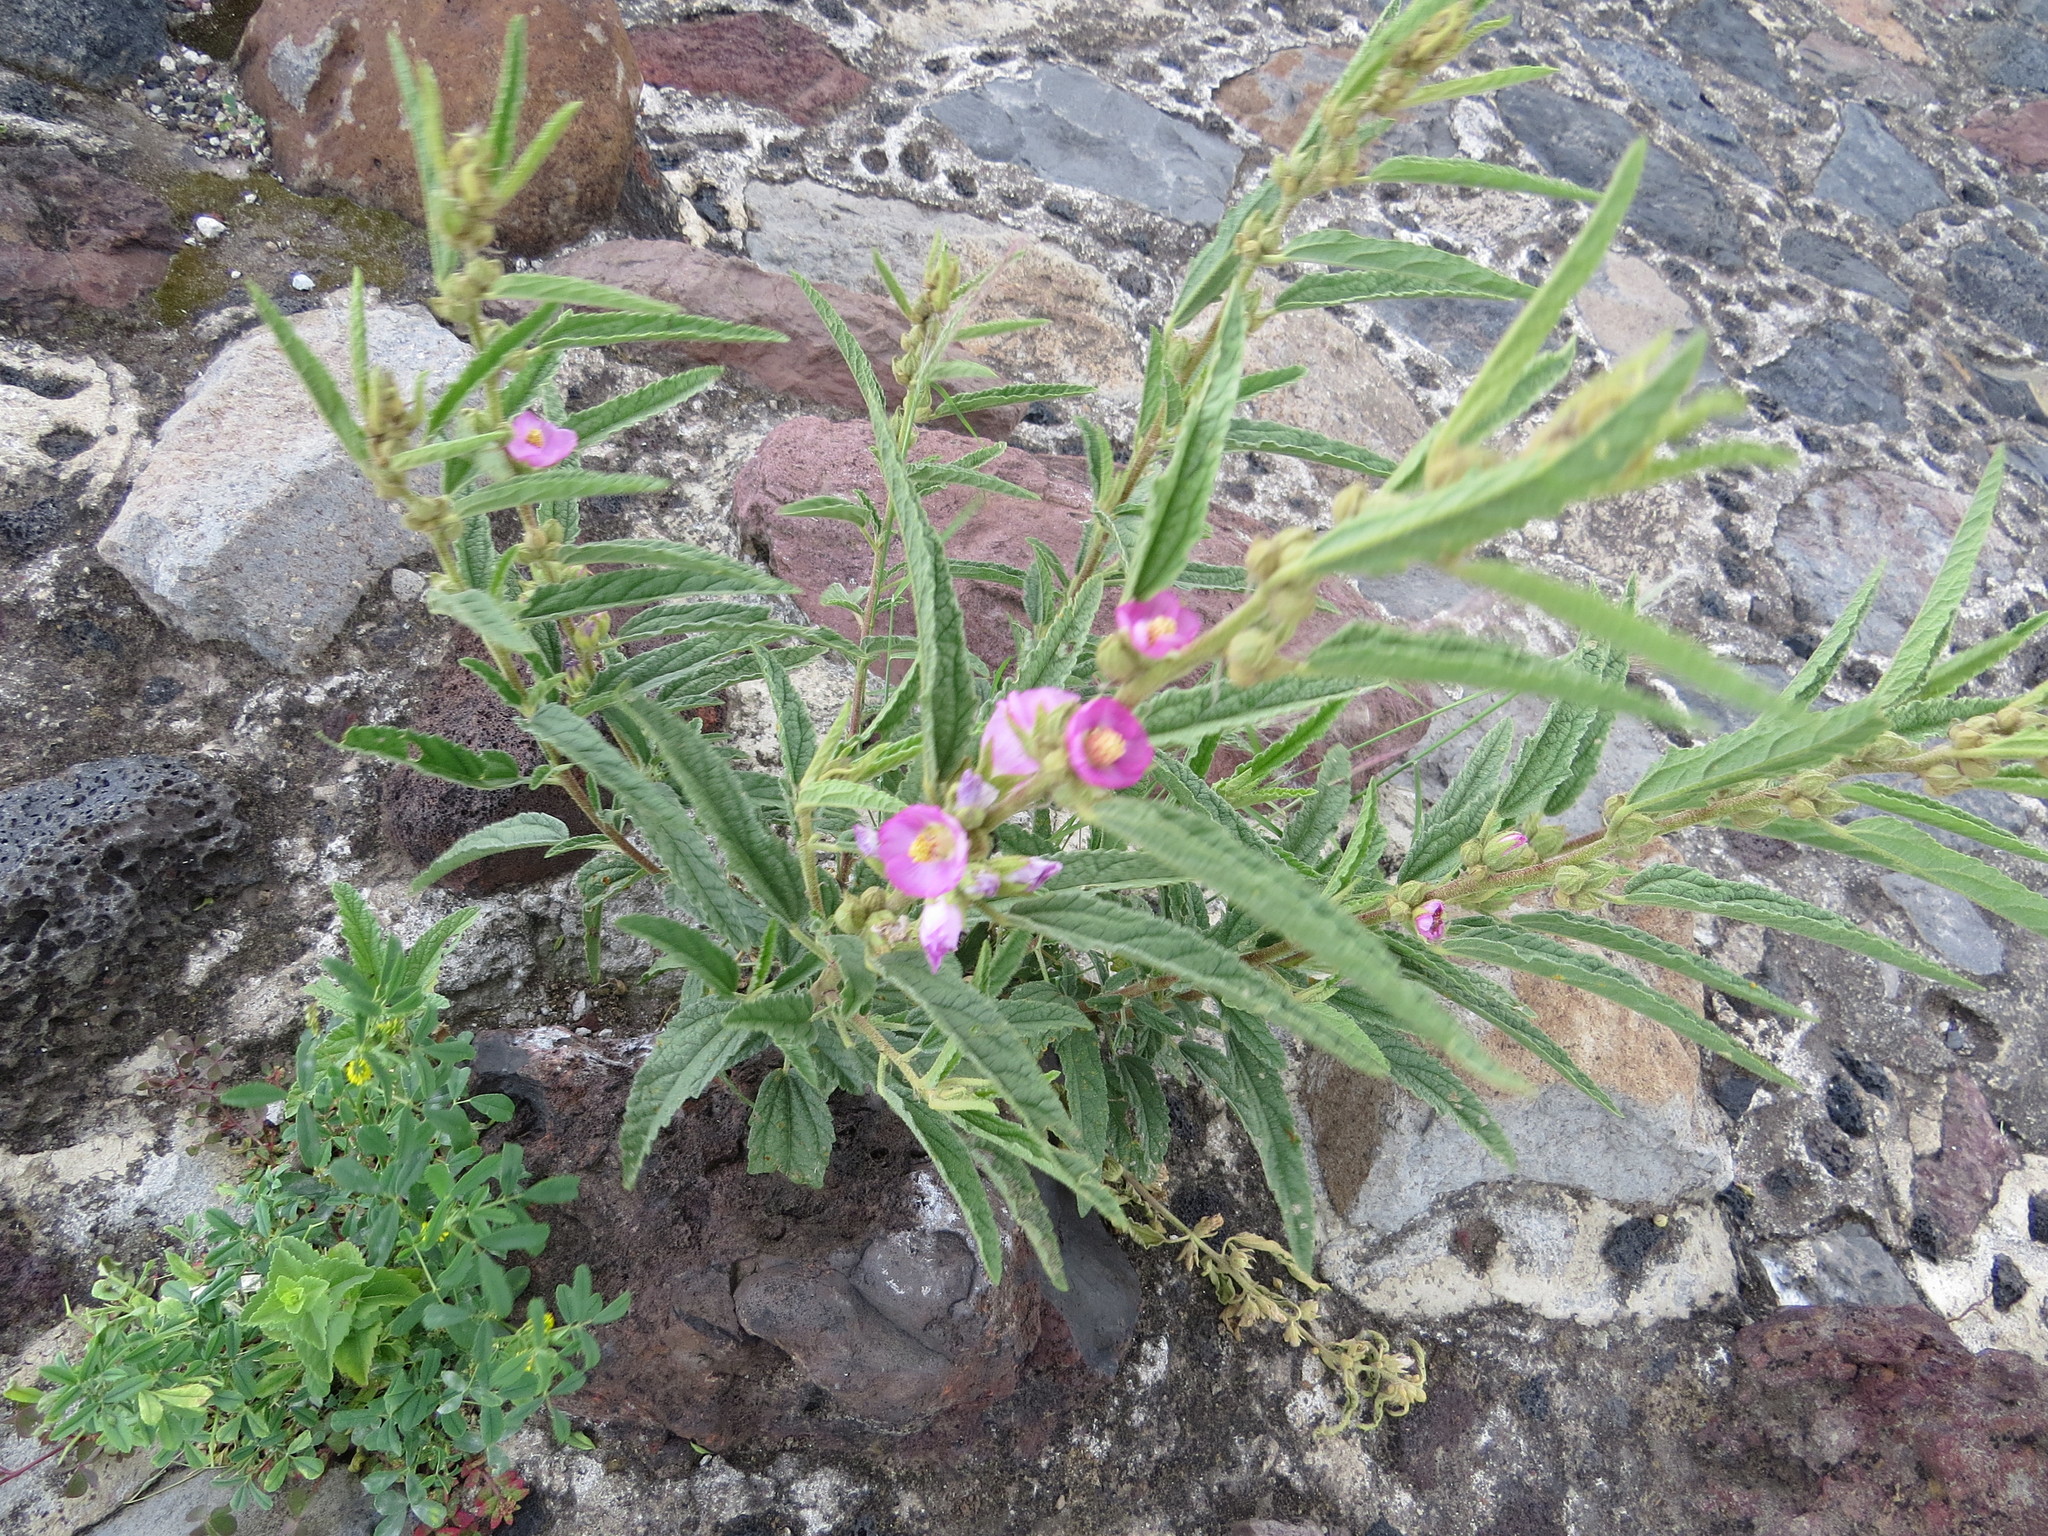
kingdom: Plantae
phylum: Tracheophyta
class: Magnoliopsida
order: Malvales
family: Malvaceae
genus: Sphaeralcea
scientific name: Sphaeralcea angustifolia
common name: Copper globe-mallow
